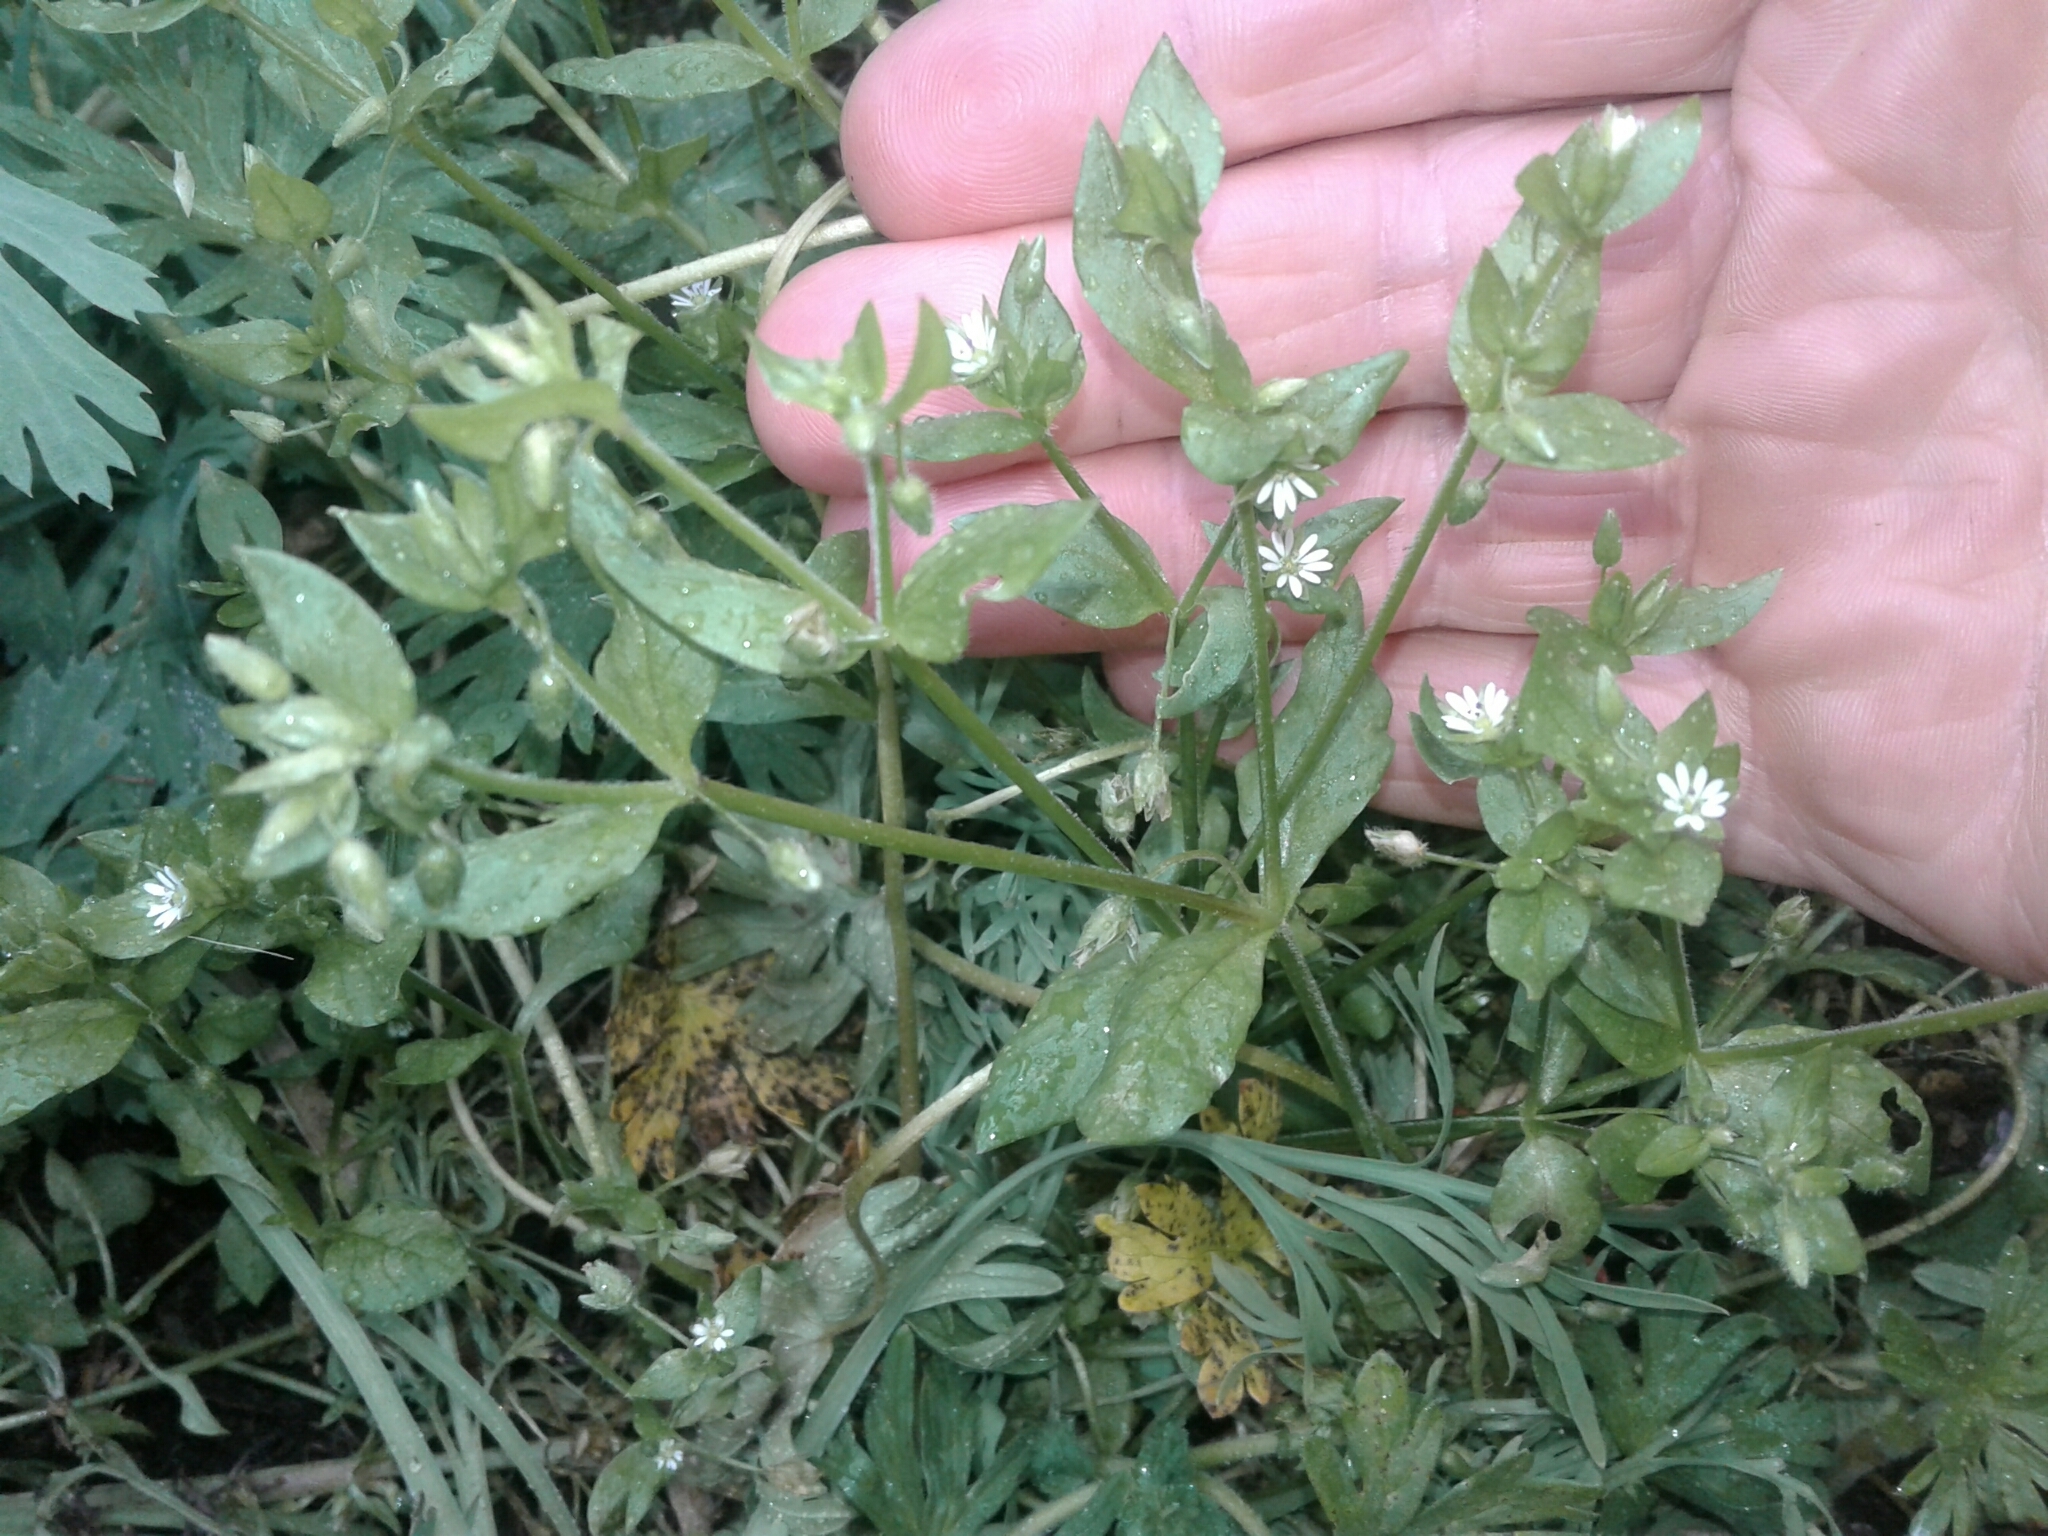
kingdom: Plantae
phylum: Tracheophyta
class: Magnoliopsida
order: Caryophyllales
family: Caryophyllaceae
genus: Stellaria
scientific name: Stellaria media
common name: Common chickweed
